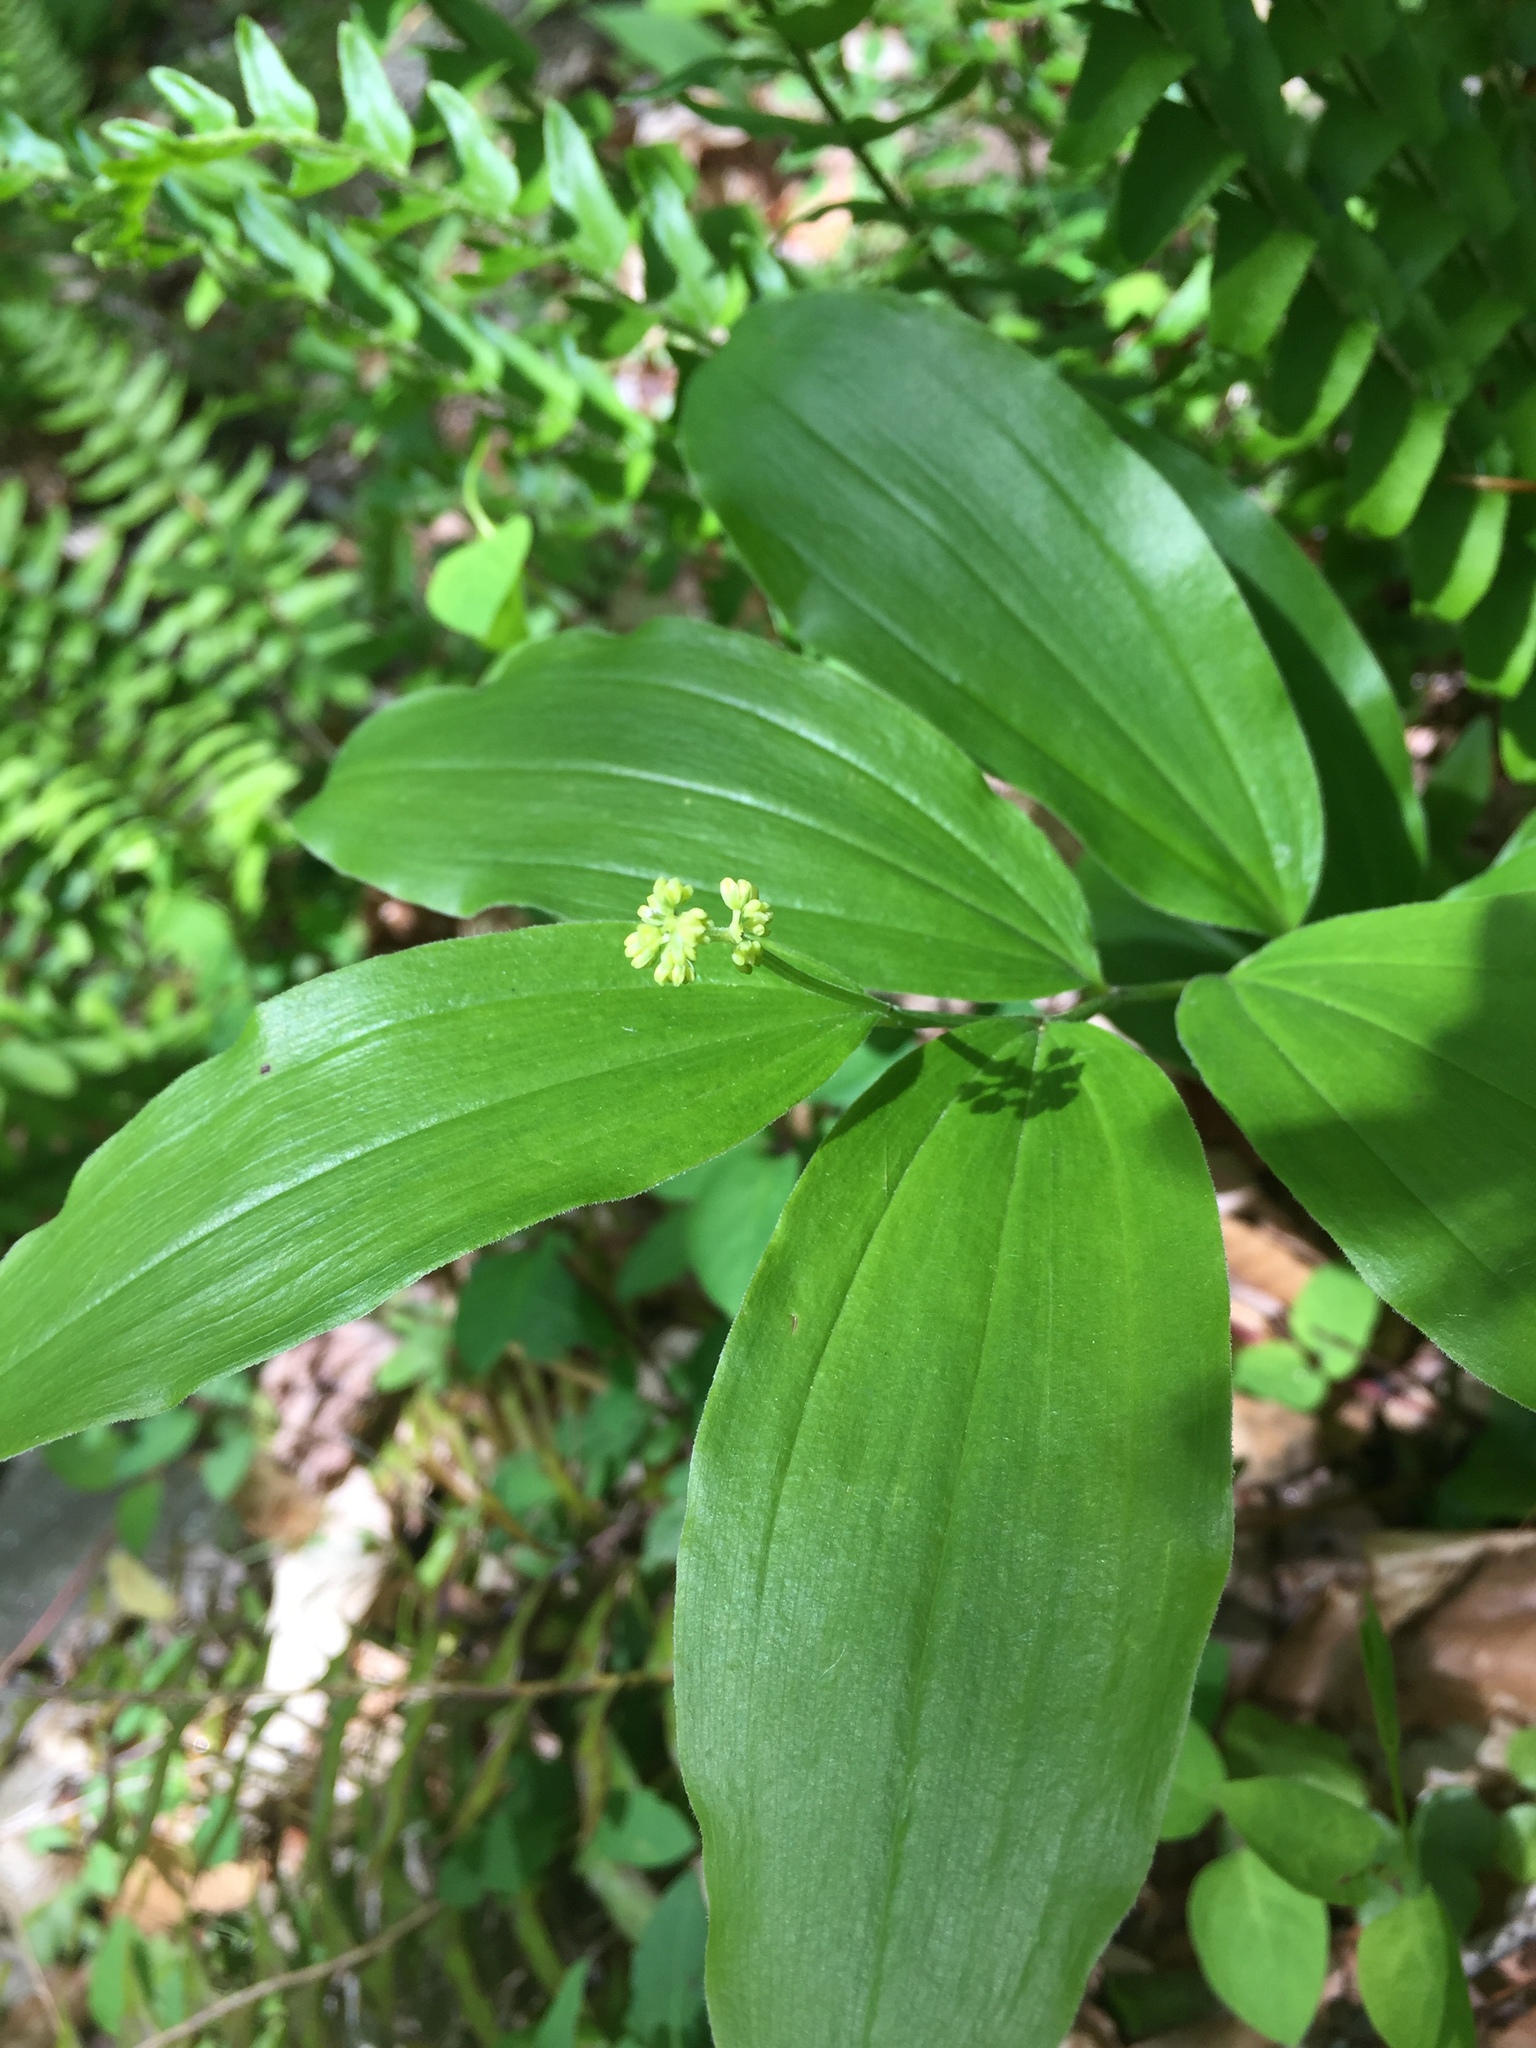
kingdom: Plantae
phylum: Tracheophyta
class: Liliopsida
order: Asparagales
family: Asparagaceae
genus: Maianthemum
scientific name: Maianthemum racemosum
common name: False spikenard
